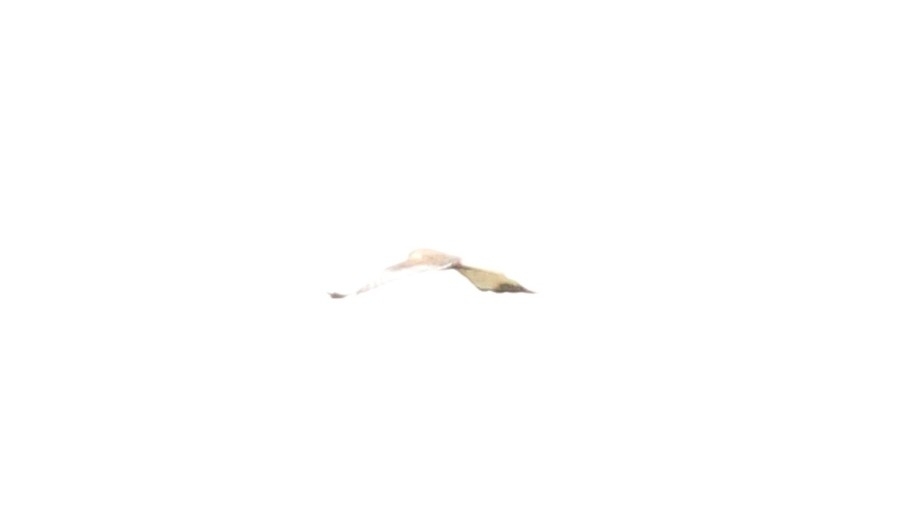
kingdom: Animalia
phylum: Chordata
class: Aves
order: Accipitriformes
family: Accipitridae
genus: Circus
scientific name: Circus aeruginosus
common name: Western marsh harrier
